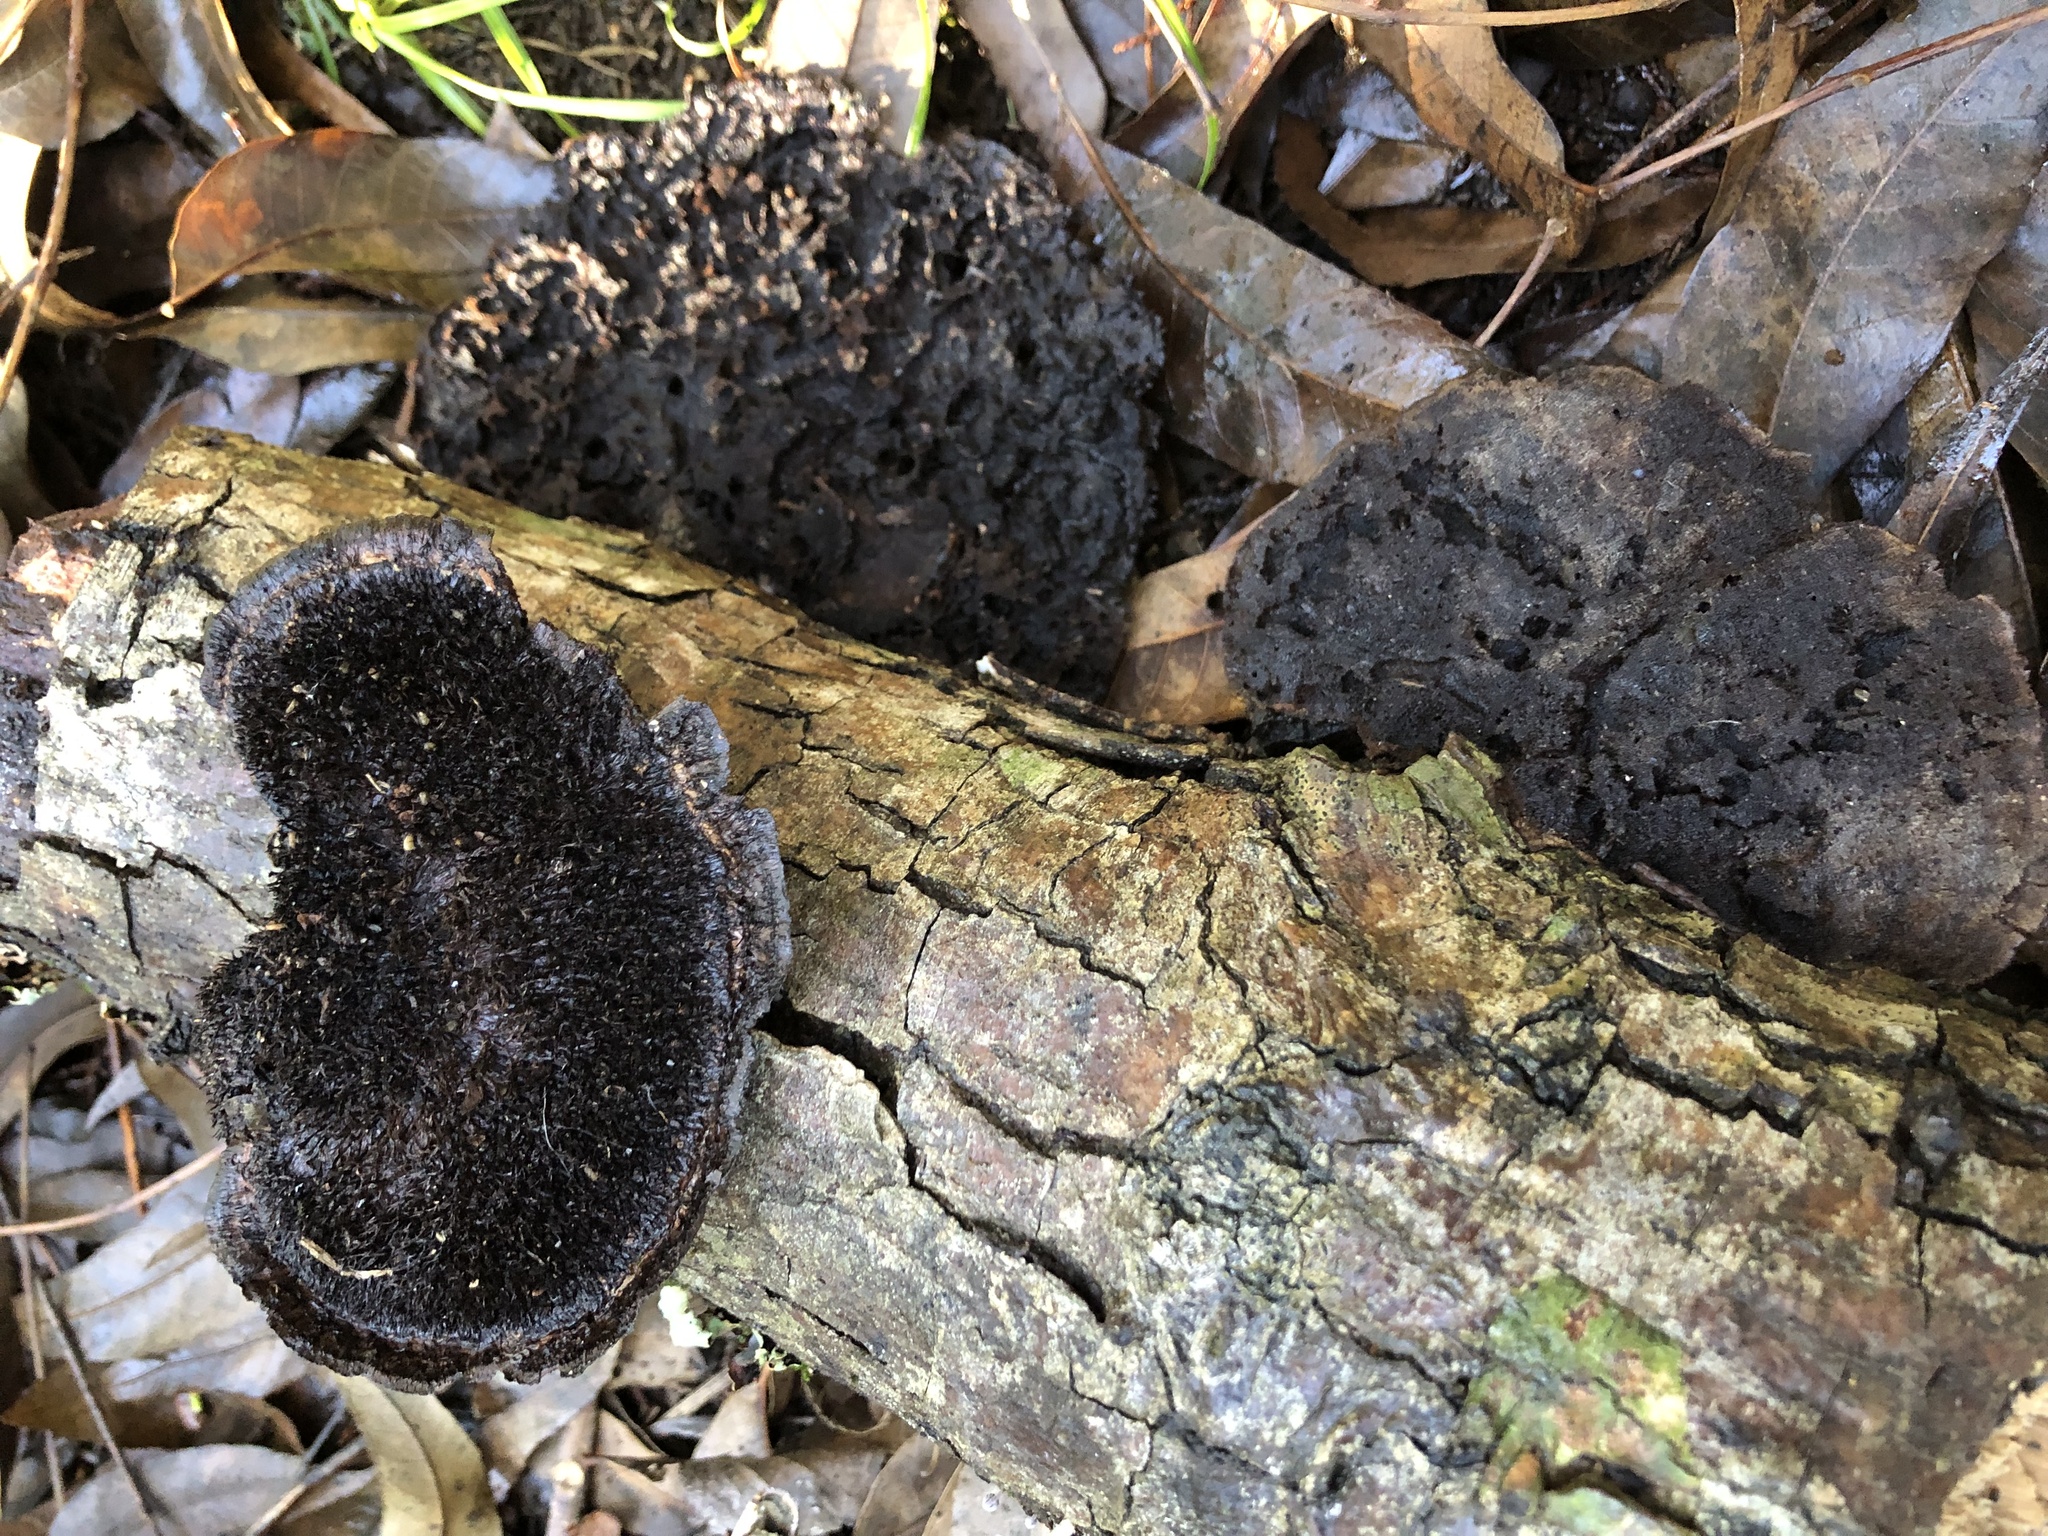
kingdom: Fungi
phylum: Basidiomycota
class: Agaricomycetes
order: Polyporales
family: Cerrenaceae
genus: Cerrena
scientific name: Cerrena hydnoides
